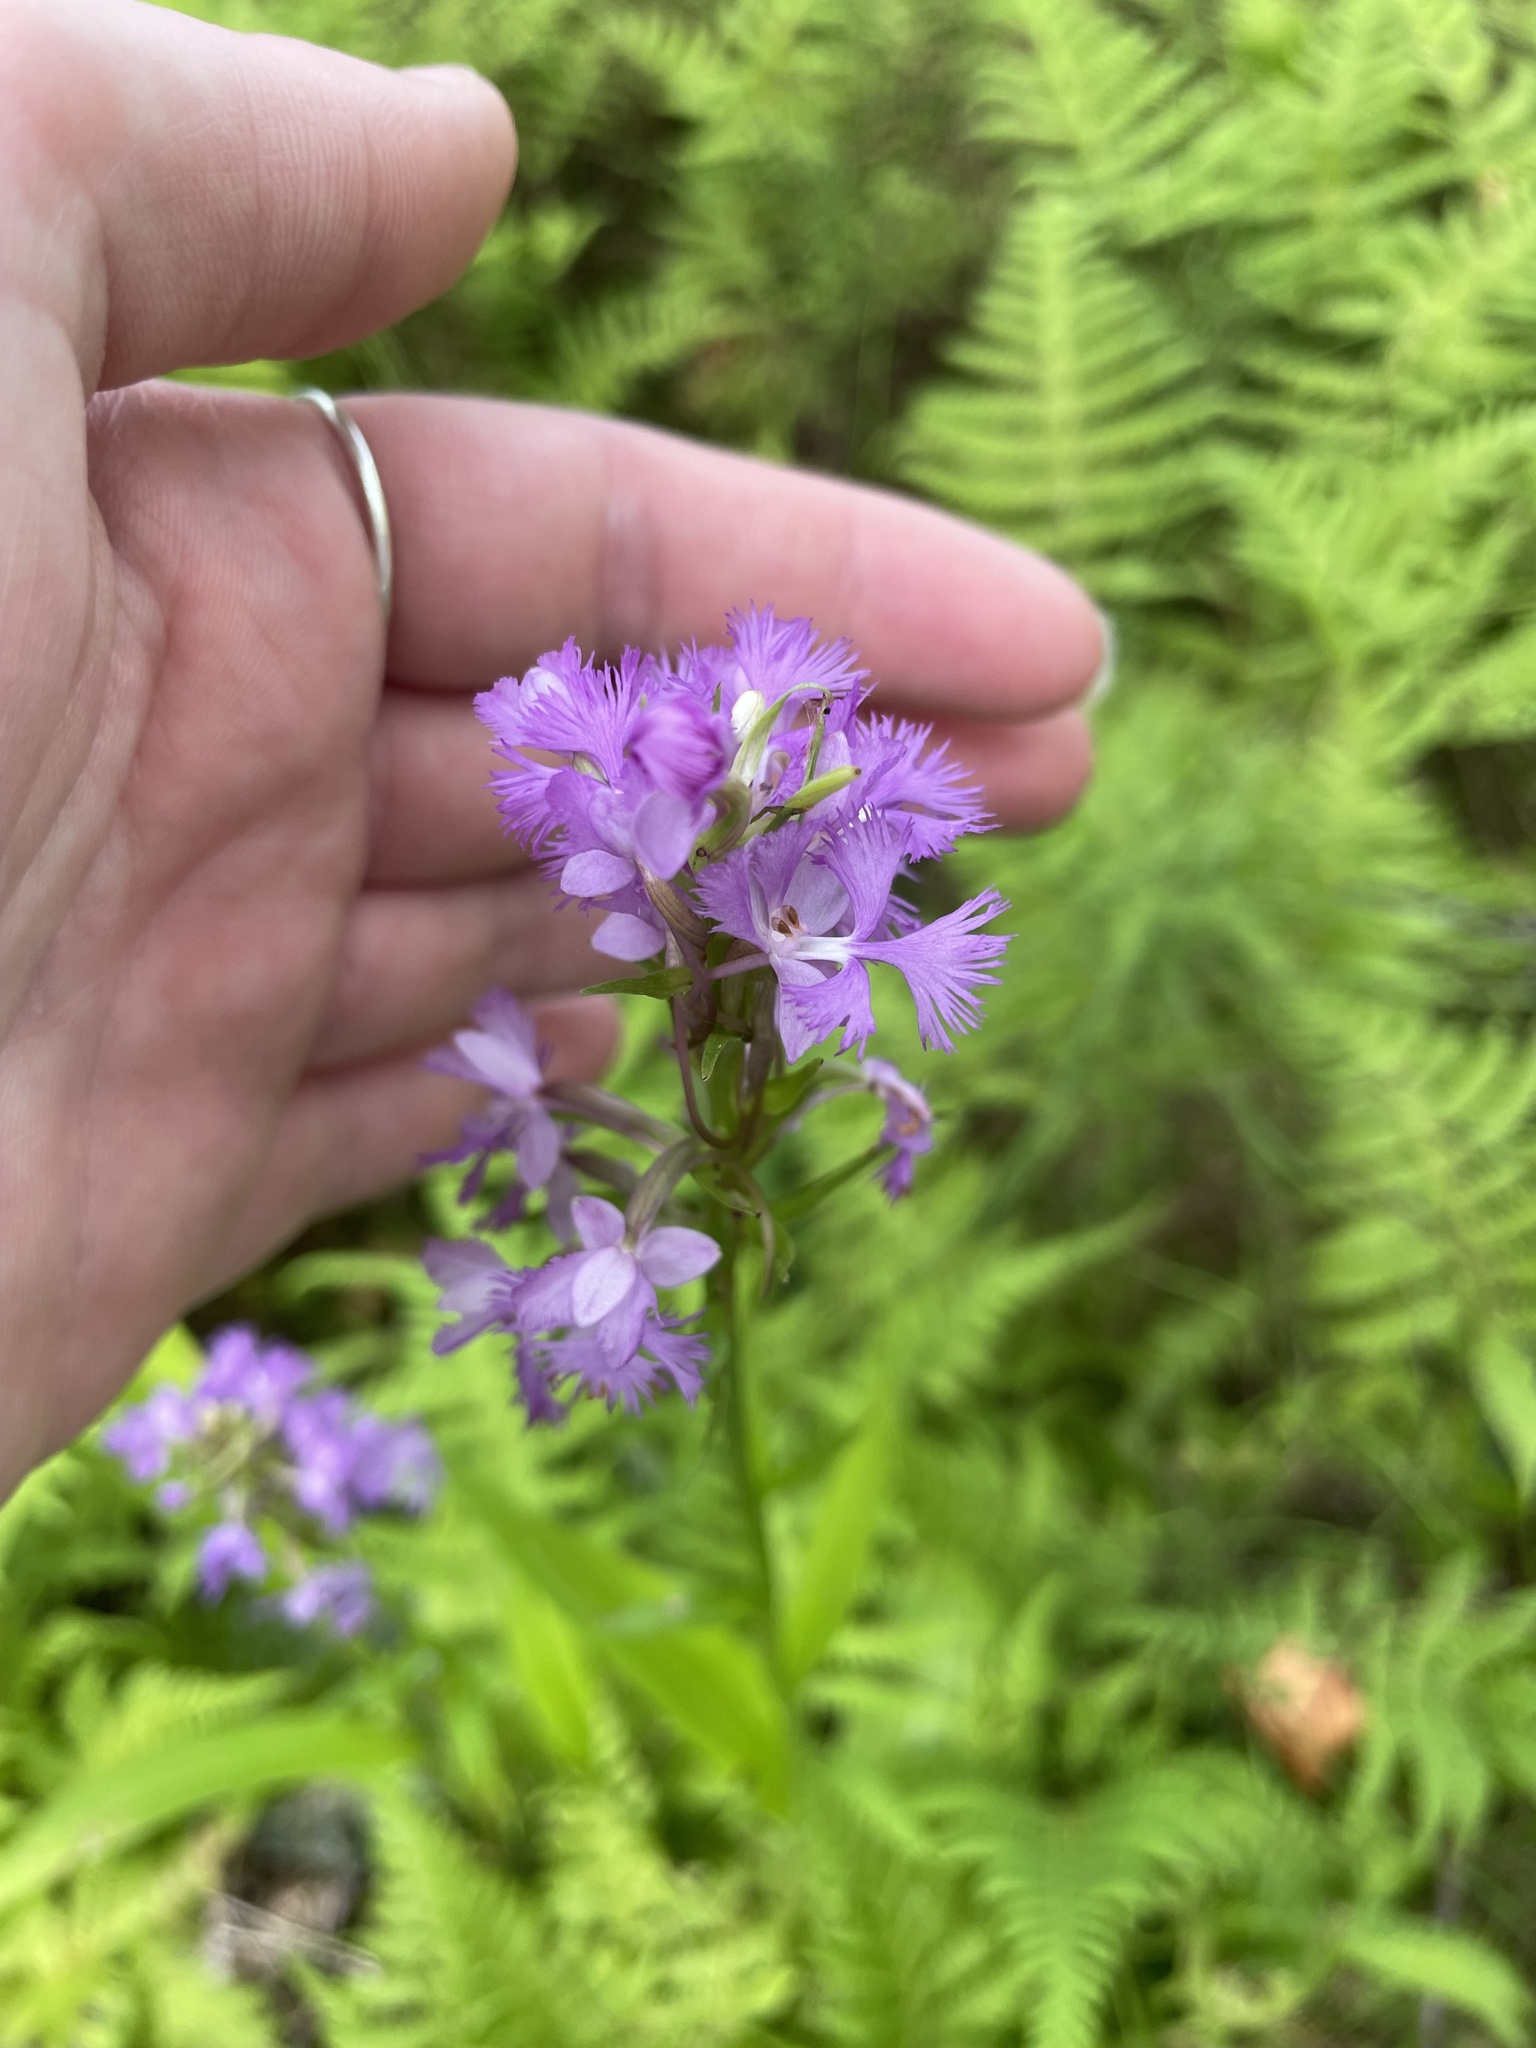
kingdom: Plantae
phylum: Tracheophyta
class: Liliopsida
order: Asparagales
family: Orchidaceae
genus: Platanthera
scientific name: Platanthera psycodes
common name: Lesser purple fringed orchid
